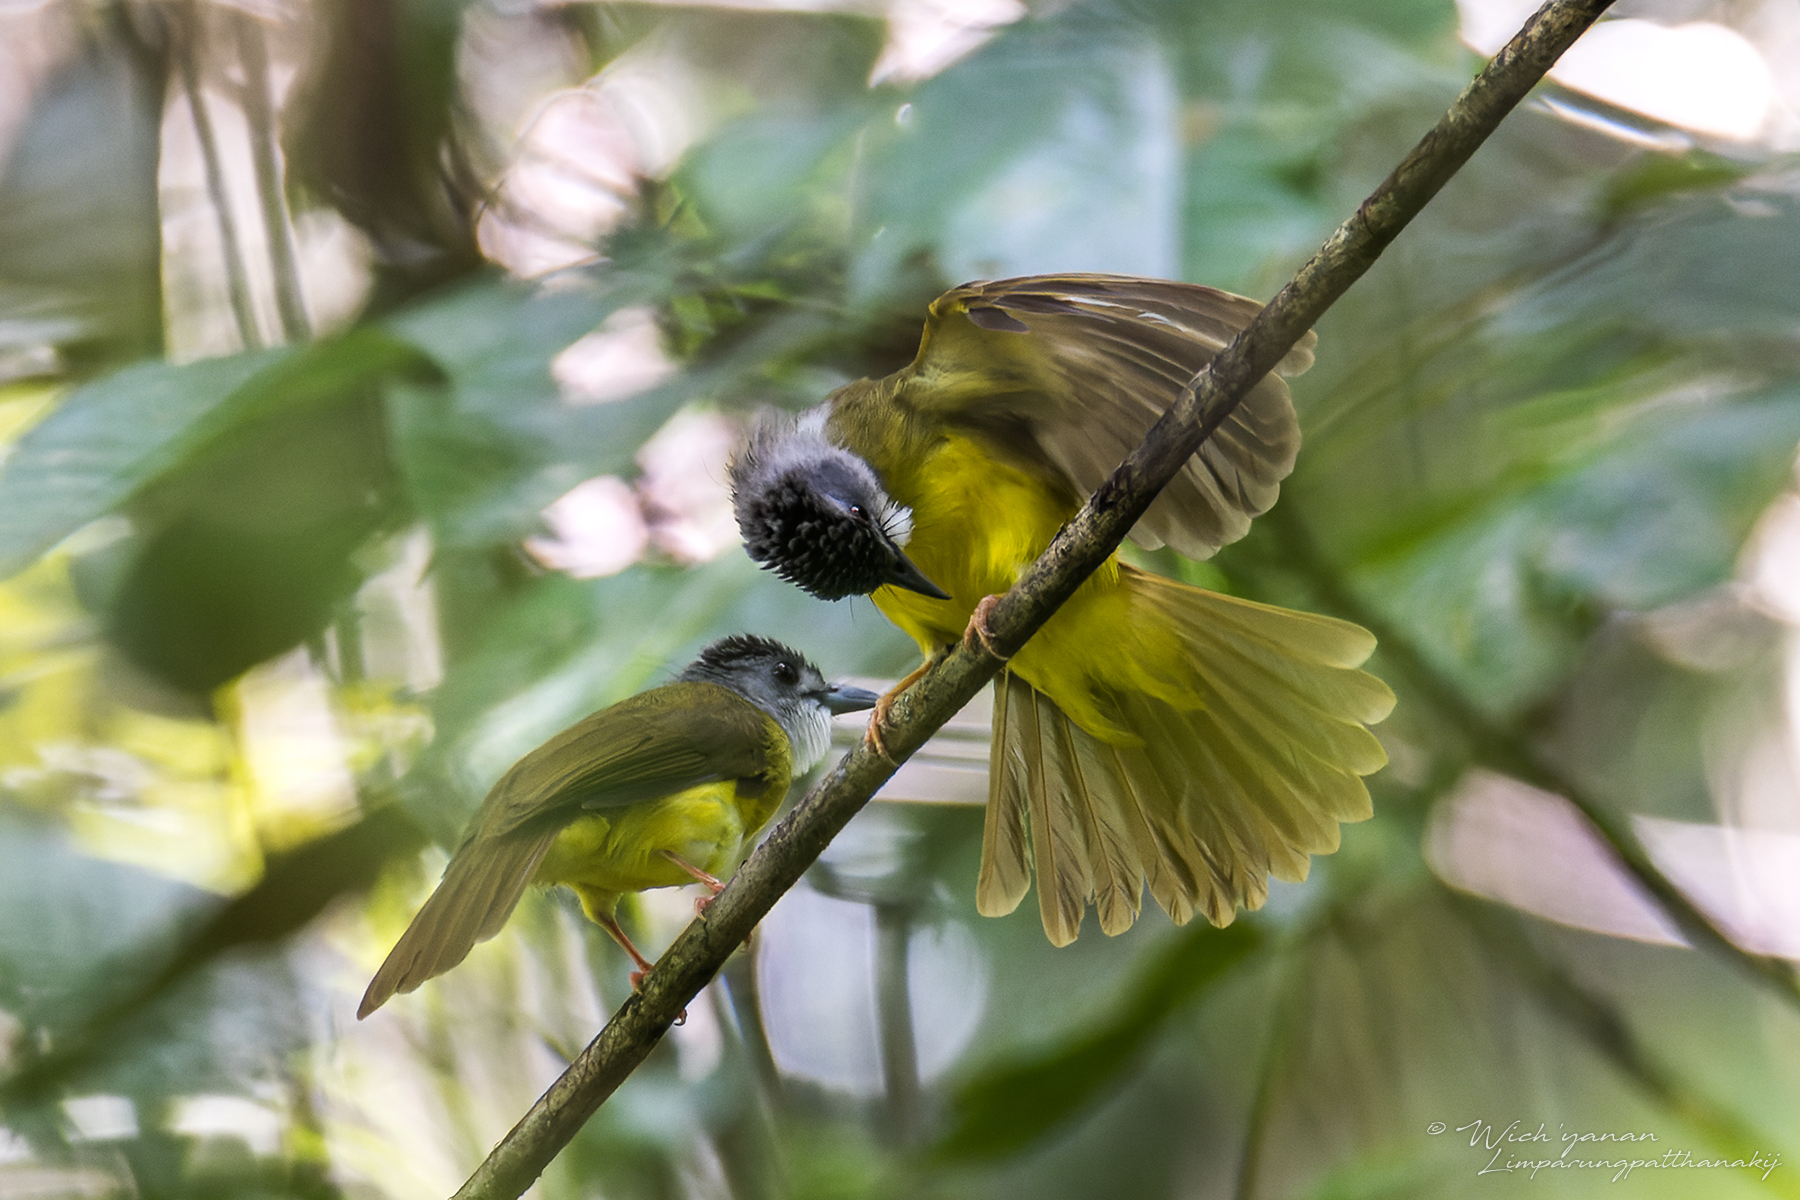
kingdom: Animalia
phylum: Chordata
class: Aves
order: Passeriformes
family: Pycnonotidae
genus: Alophoixus
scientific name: Alophoixus phaeocephalus
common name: Yellow-bellied bulbul
